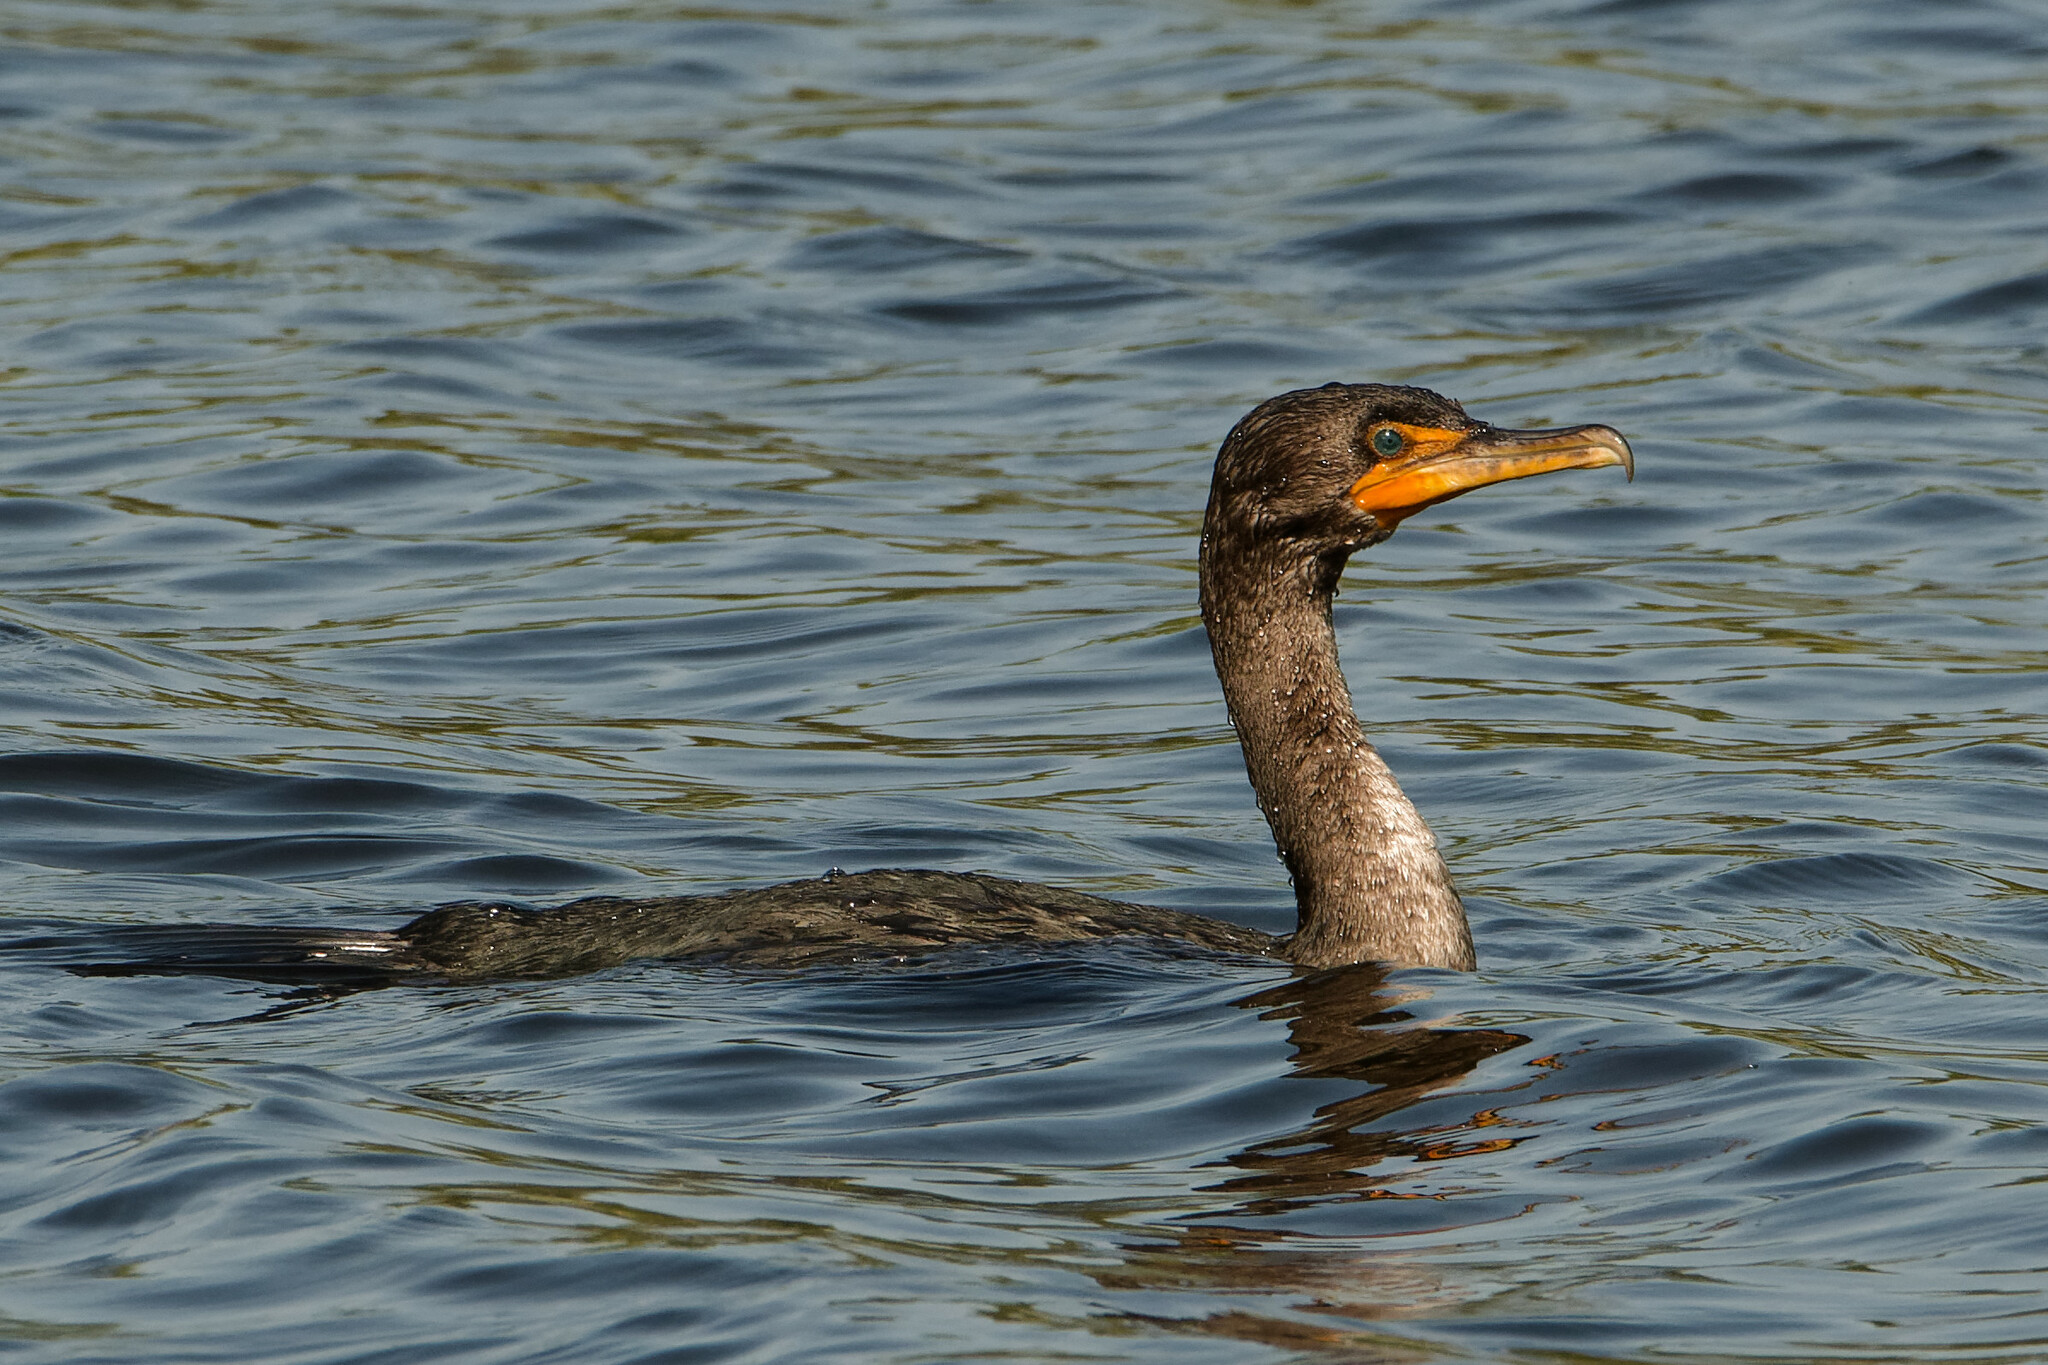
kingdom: Animalia
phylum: Chordata
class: Aves
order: Suliformes
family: Phalacrocoracidae
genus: Phalacrocorax
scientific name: Phalacrocorax auritus
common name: Double-crested cormorant
